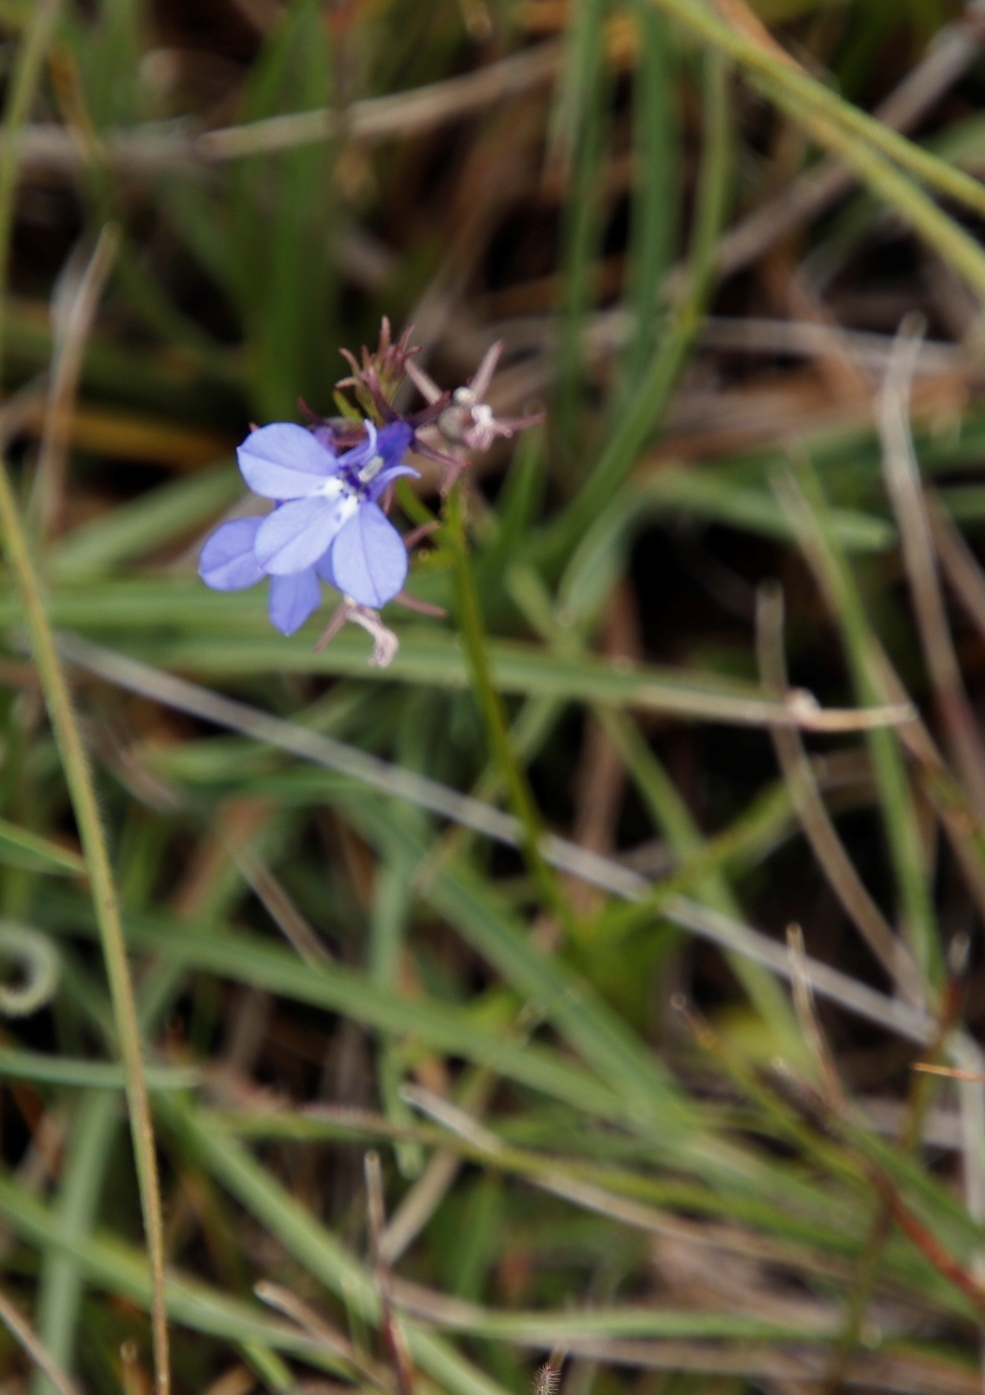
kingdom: Plantae
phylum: Tracheophyta
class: Magnoliopsida
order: Asterales
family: Campanulaceae
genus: Lobelia
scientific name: Lobelia flaccida
